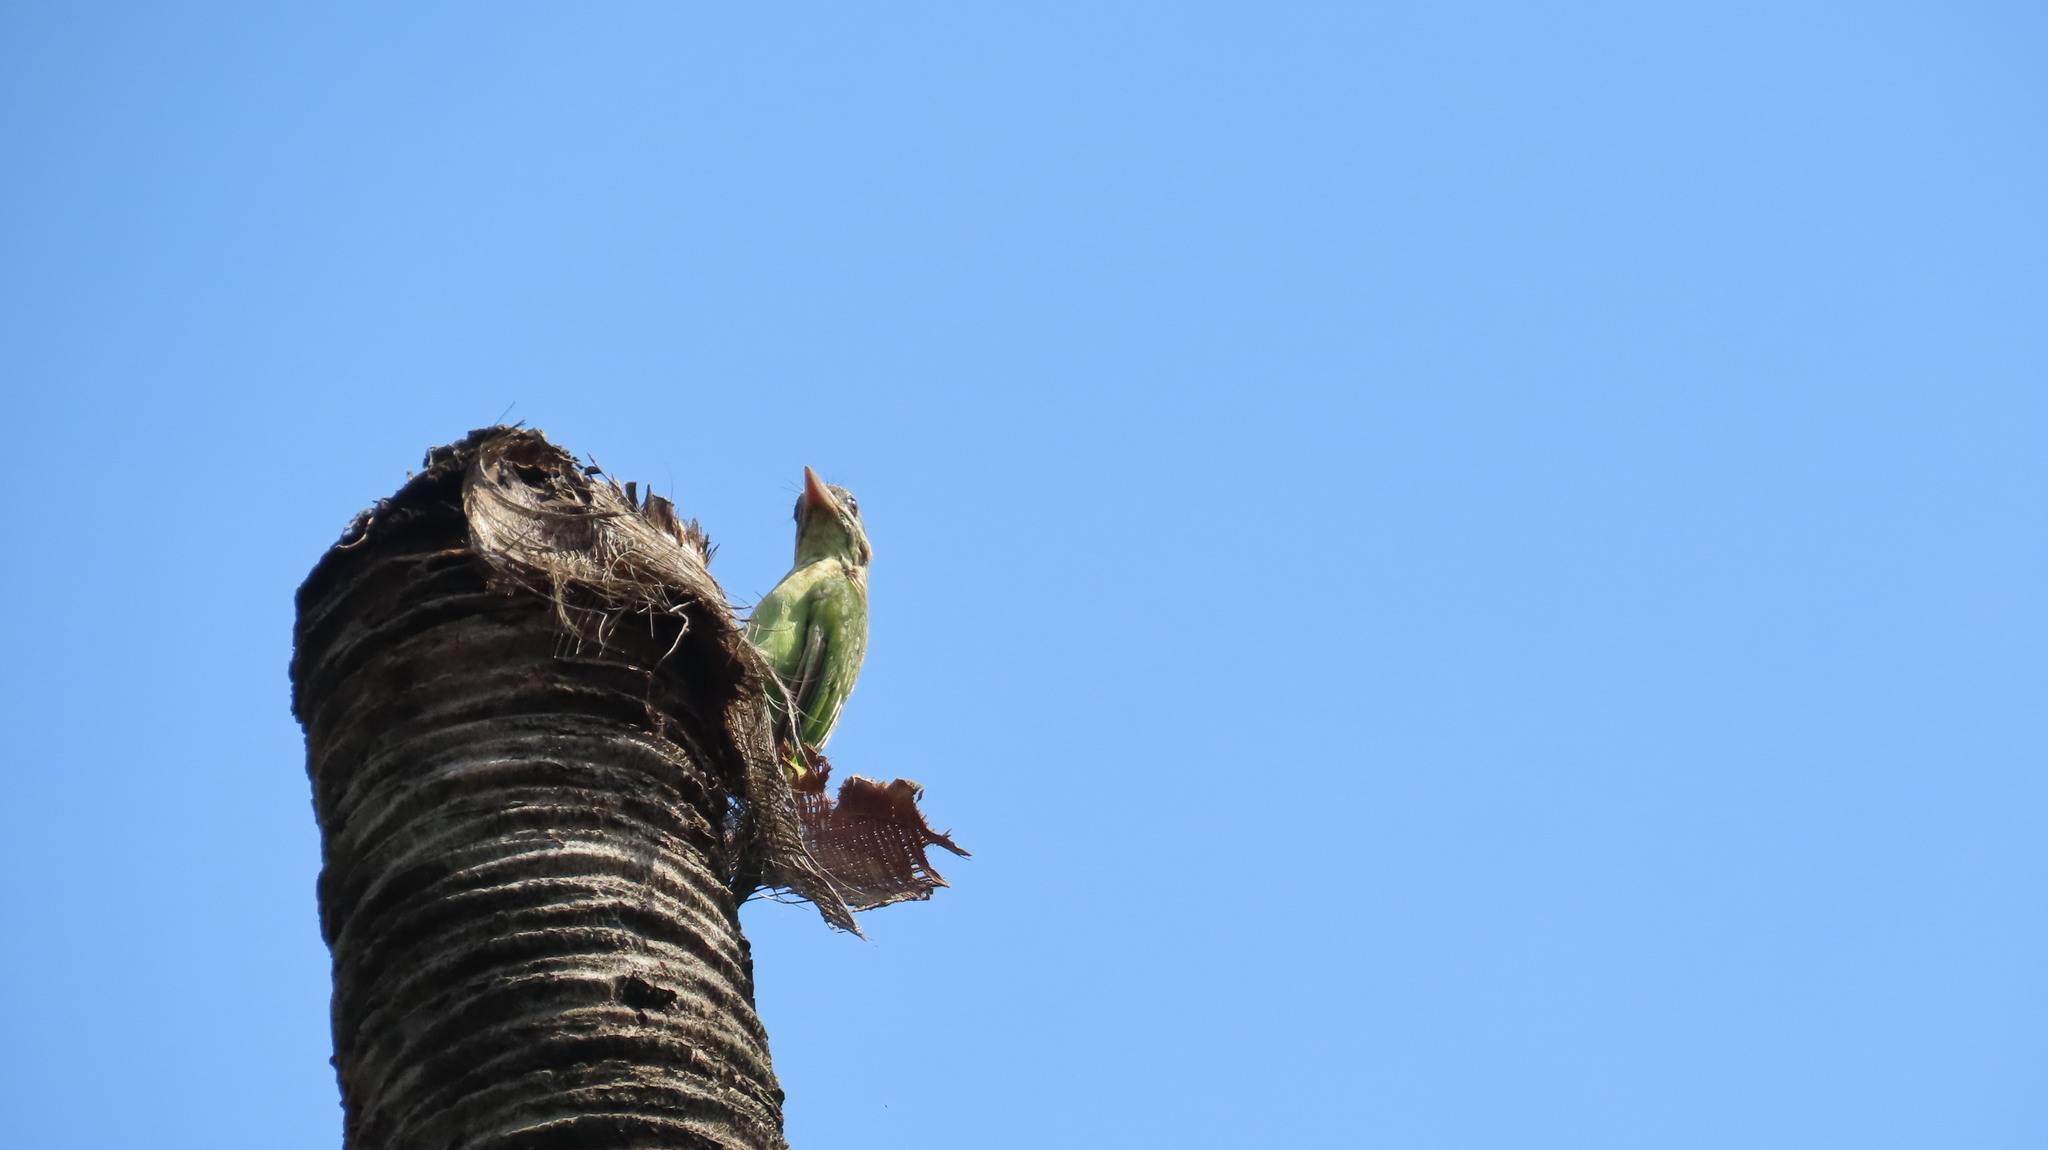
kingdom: Animalia
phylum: Chordata
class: Aves
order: Piciformes
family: Megalaimidae
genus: Psilopogon
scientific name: Psilopogon viridis
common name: White-cheeked barbet
